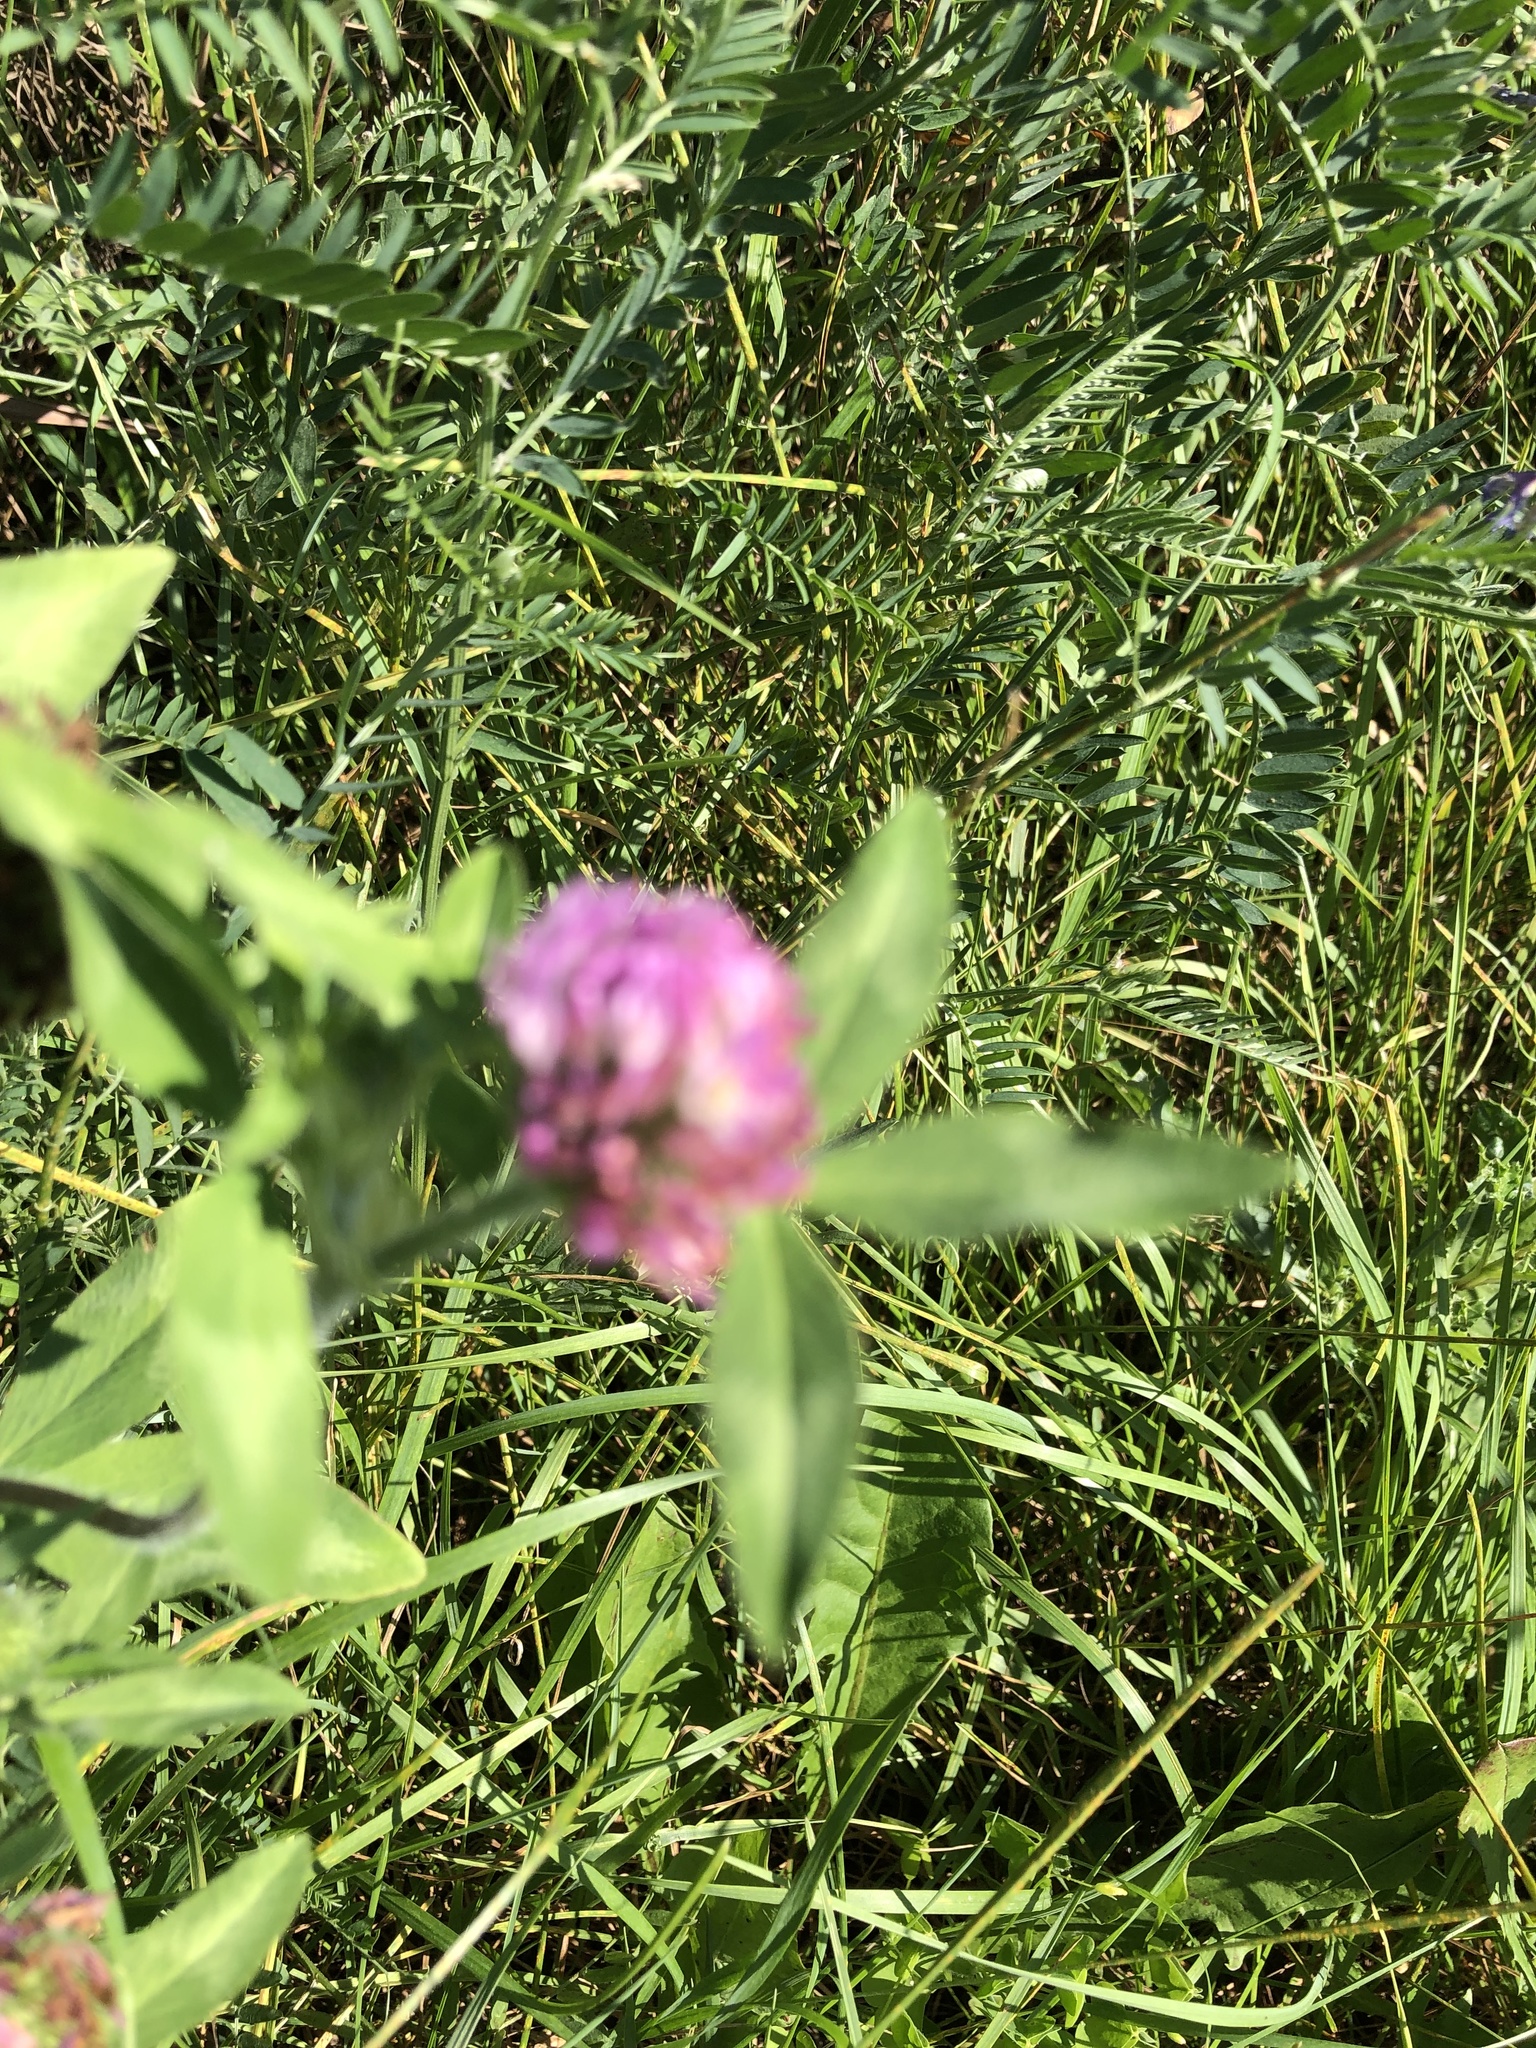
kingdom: Plantae
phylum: Tracheophyta
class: Magnoliopsida
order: Fabales
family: Fabaceae
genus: Trifolium
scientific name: Trifolium pratense
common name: Red clover
